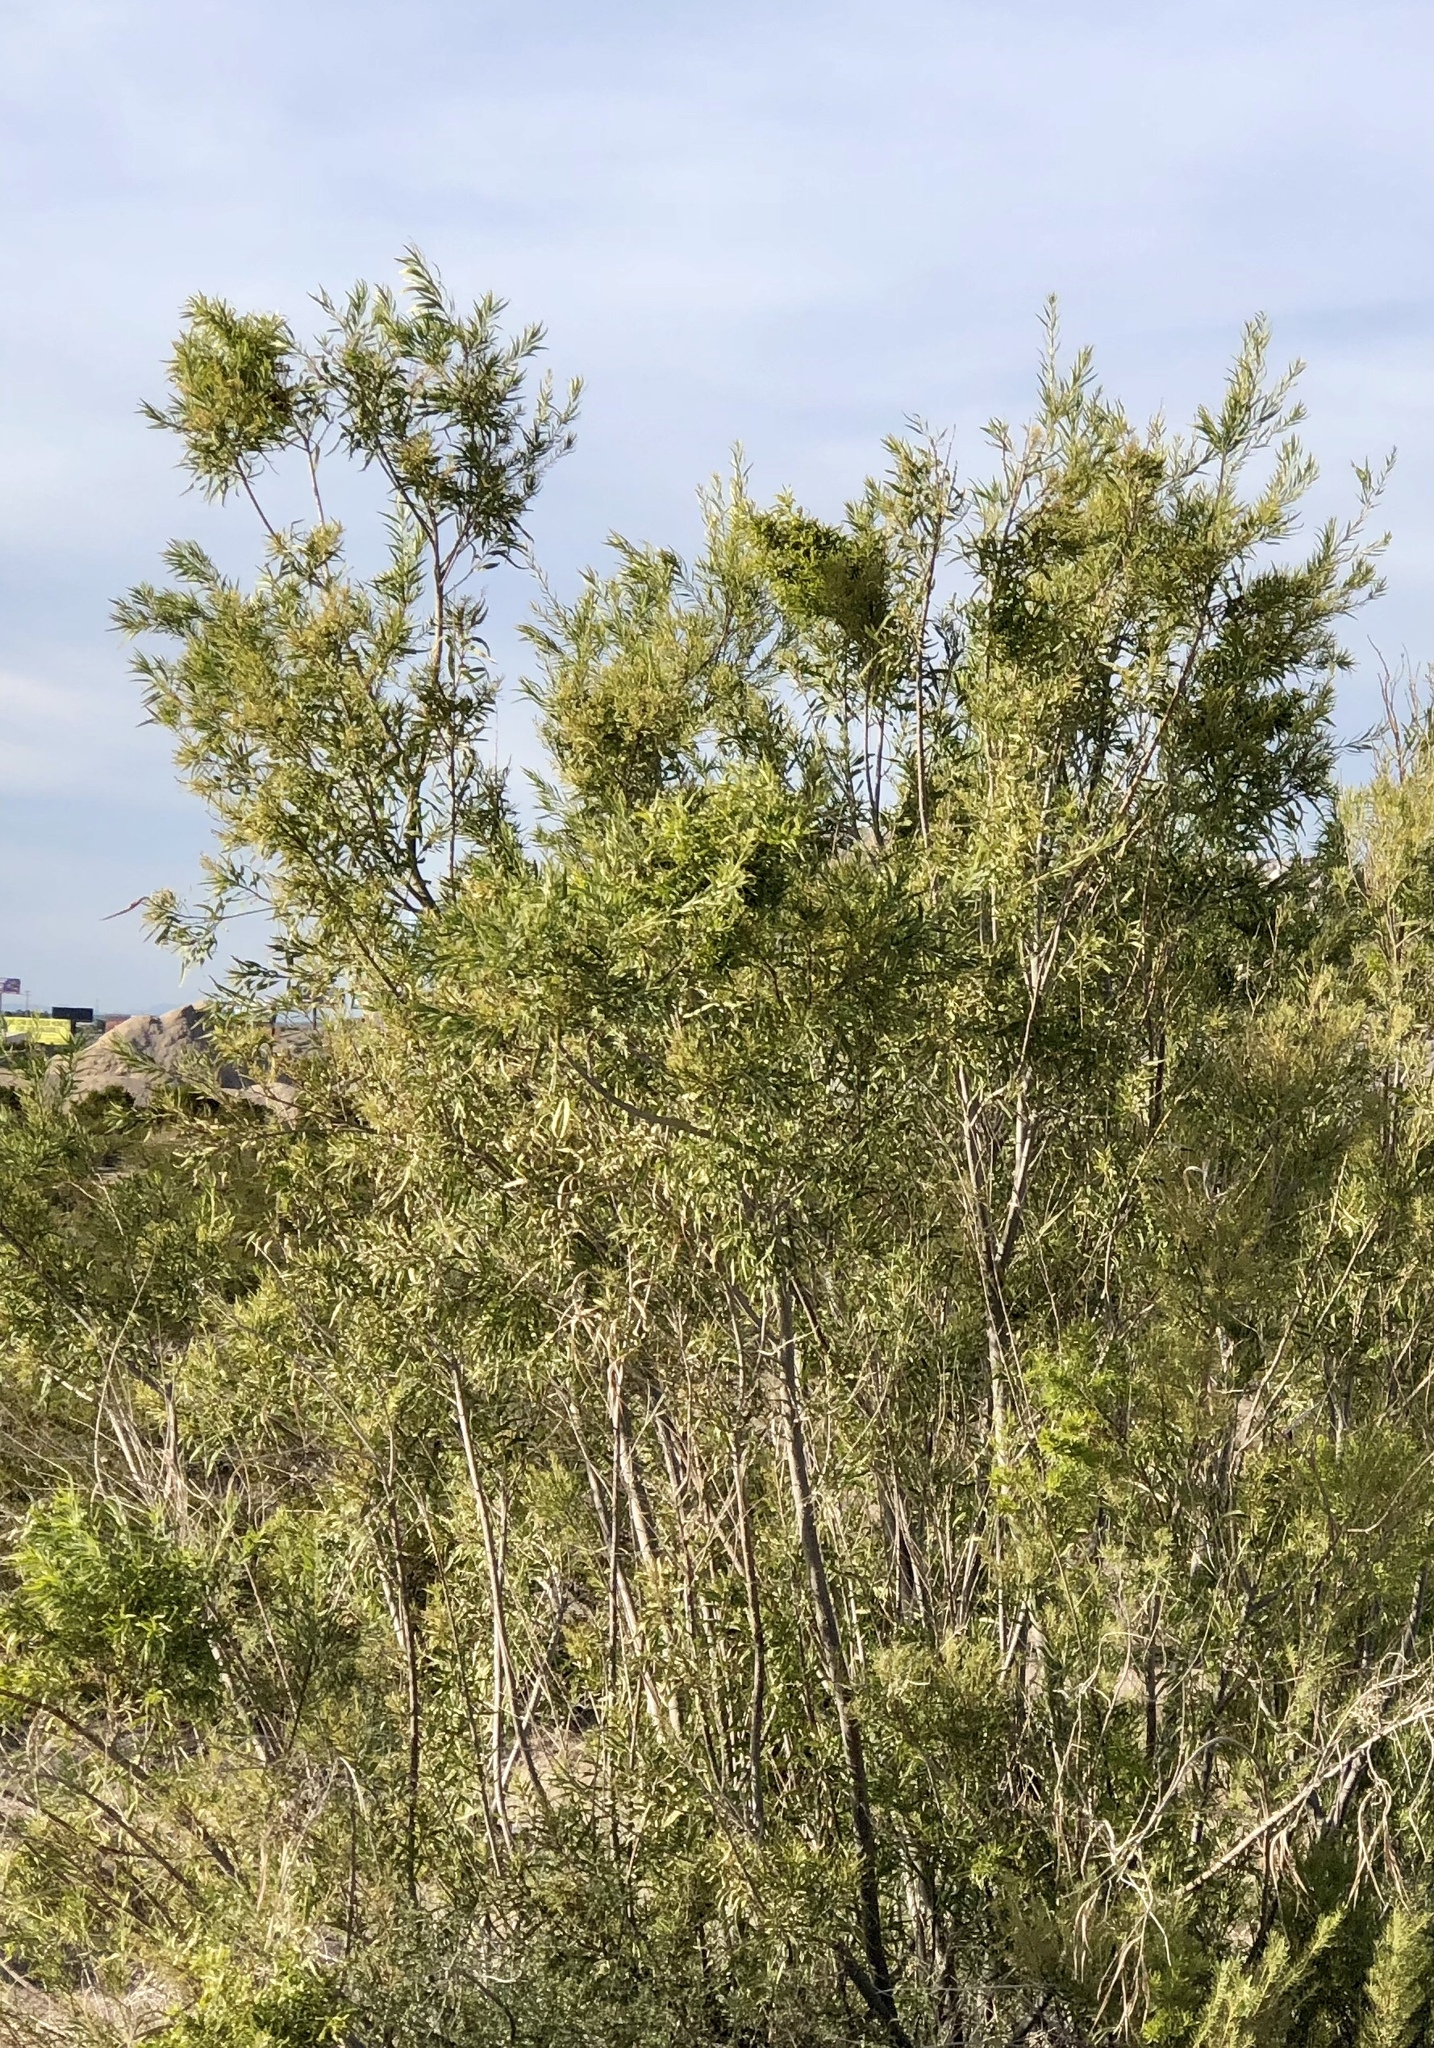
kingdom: Plantae
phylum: Tracheophyta
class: Magnoliopsida
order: Lamiales
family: Bignoniaceae
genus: Chilopsis
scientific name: Chilopsis linearis
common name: Desert-willow
